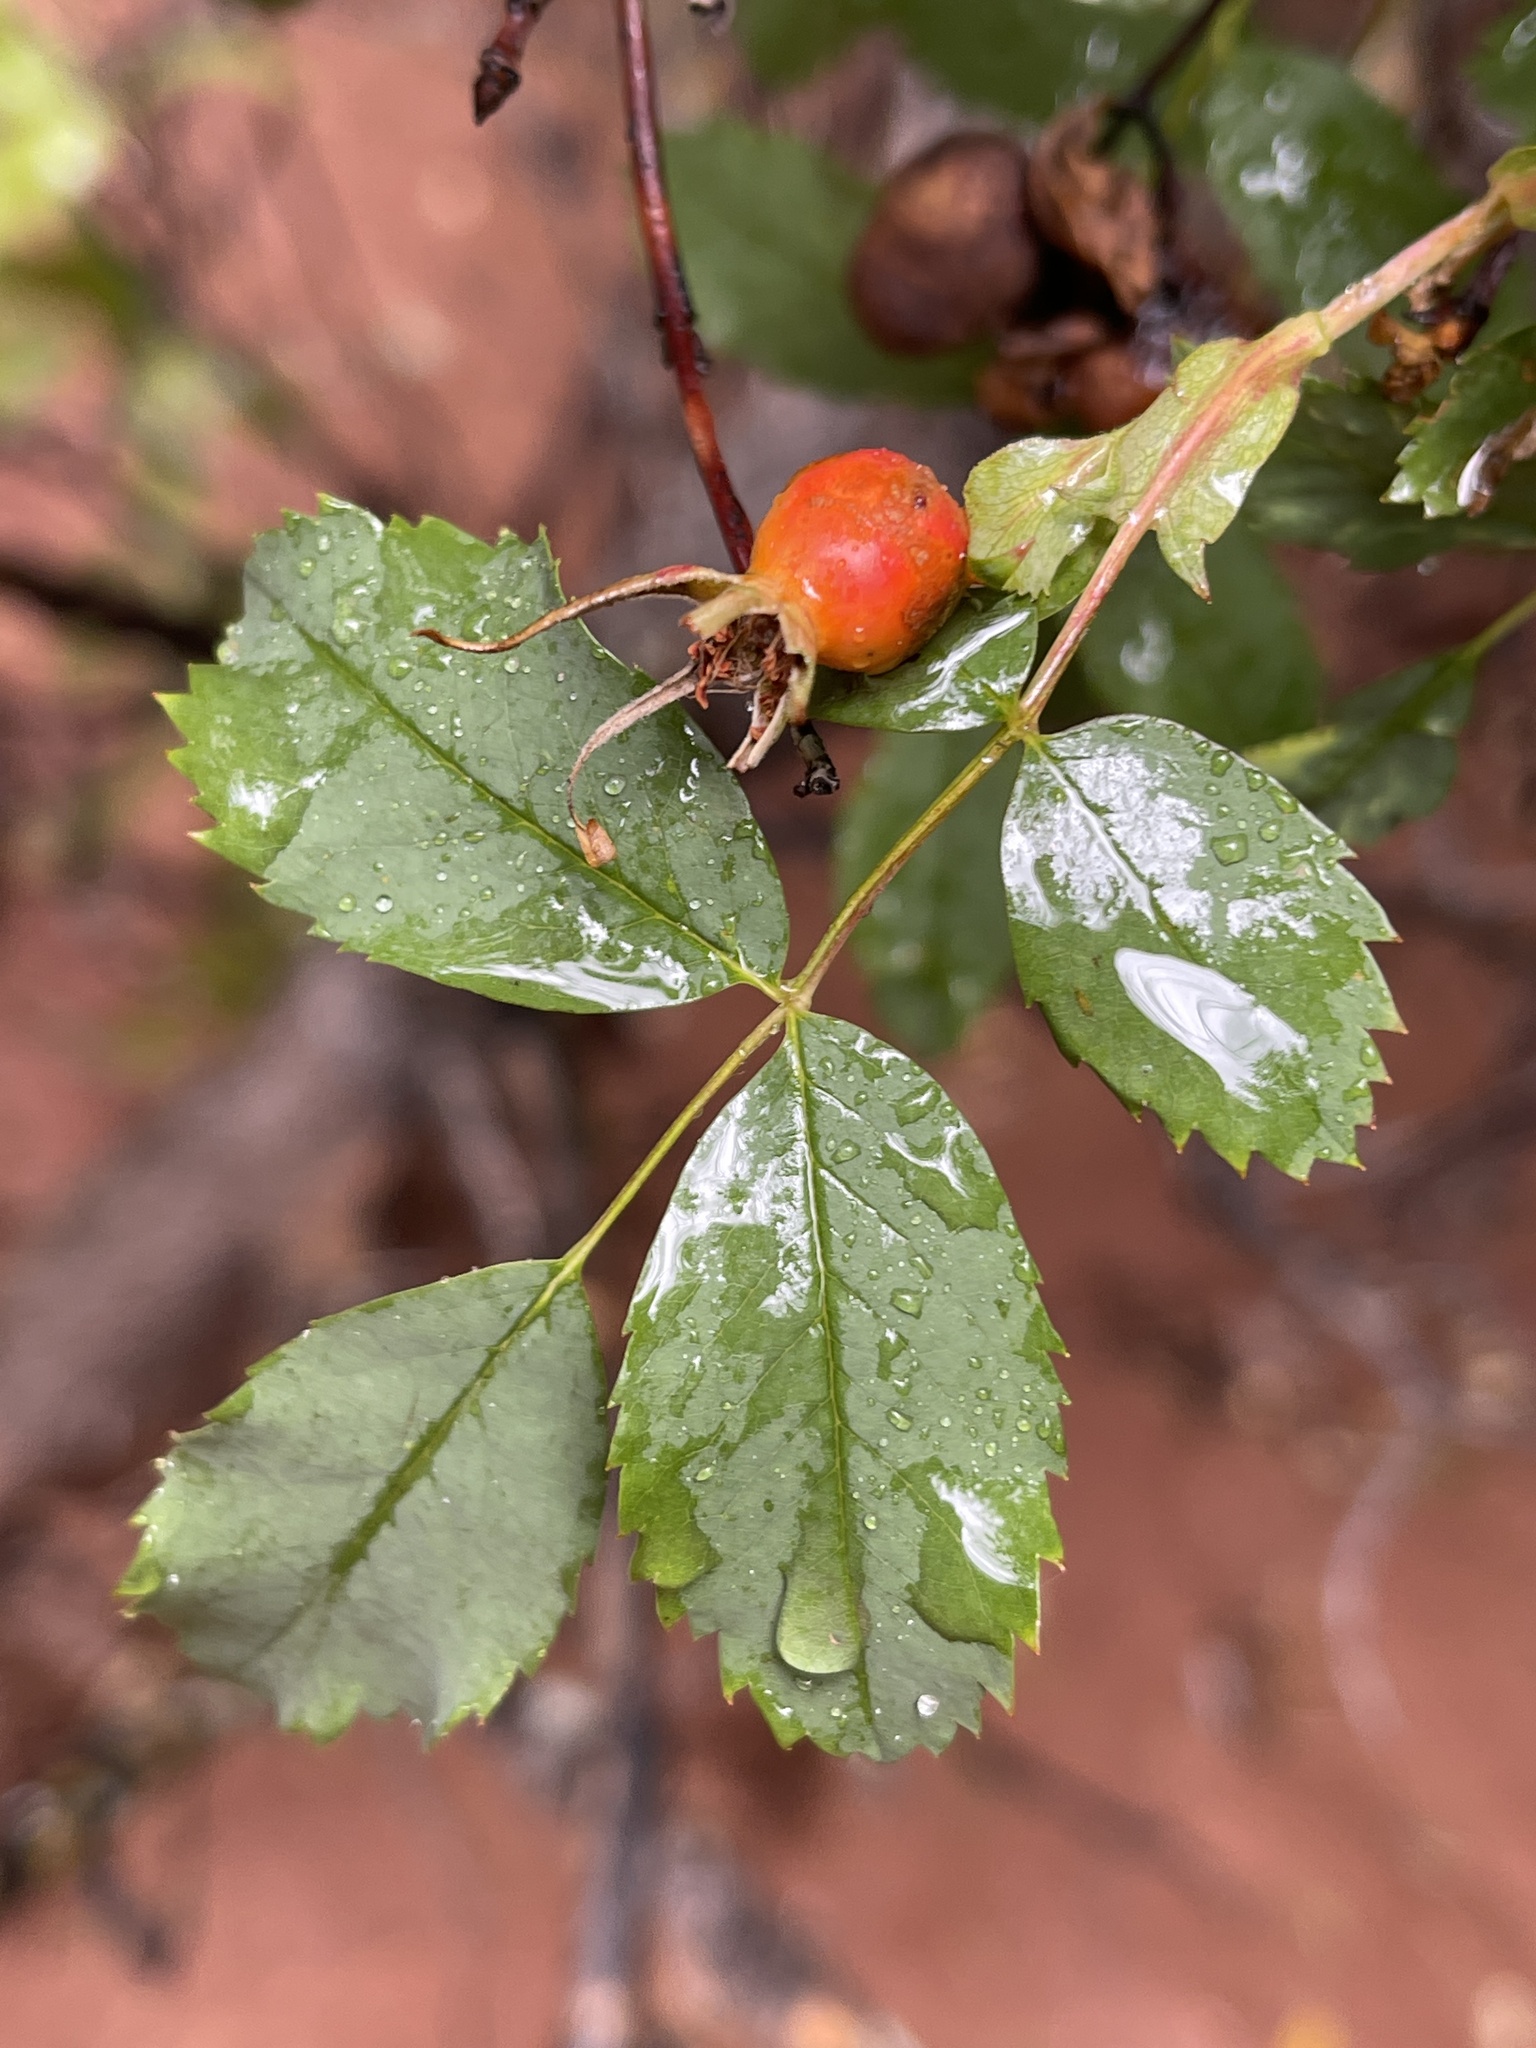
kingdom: Plantae
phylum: Tracheophyta
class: Magnoliopsida
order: Rosales
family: Rosaceae
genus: Rosa
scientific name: Rosa woodsii
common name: Woods's rose
